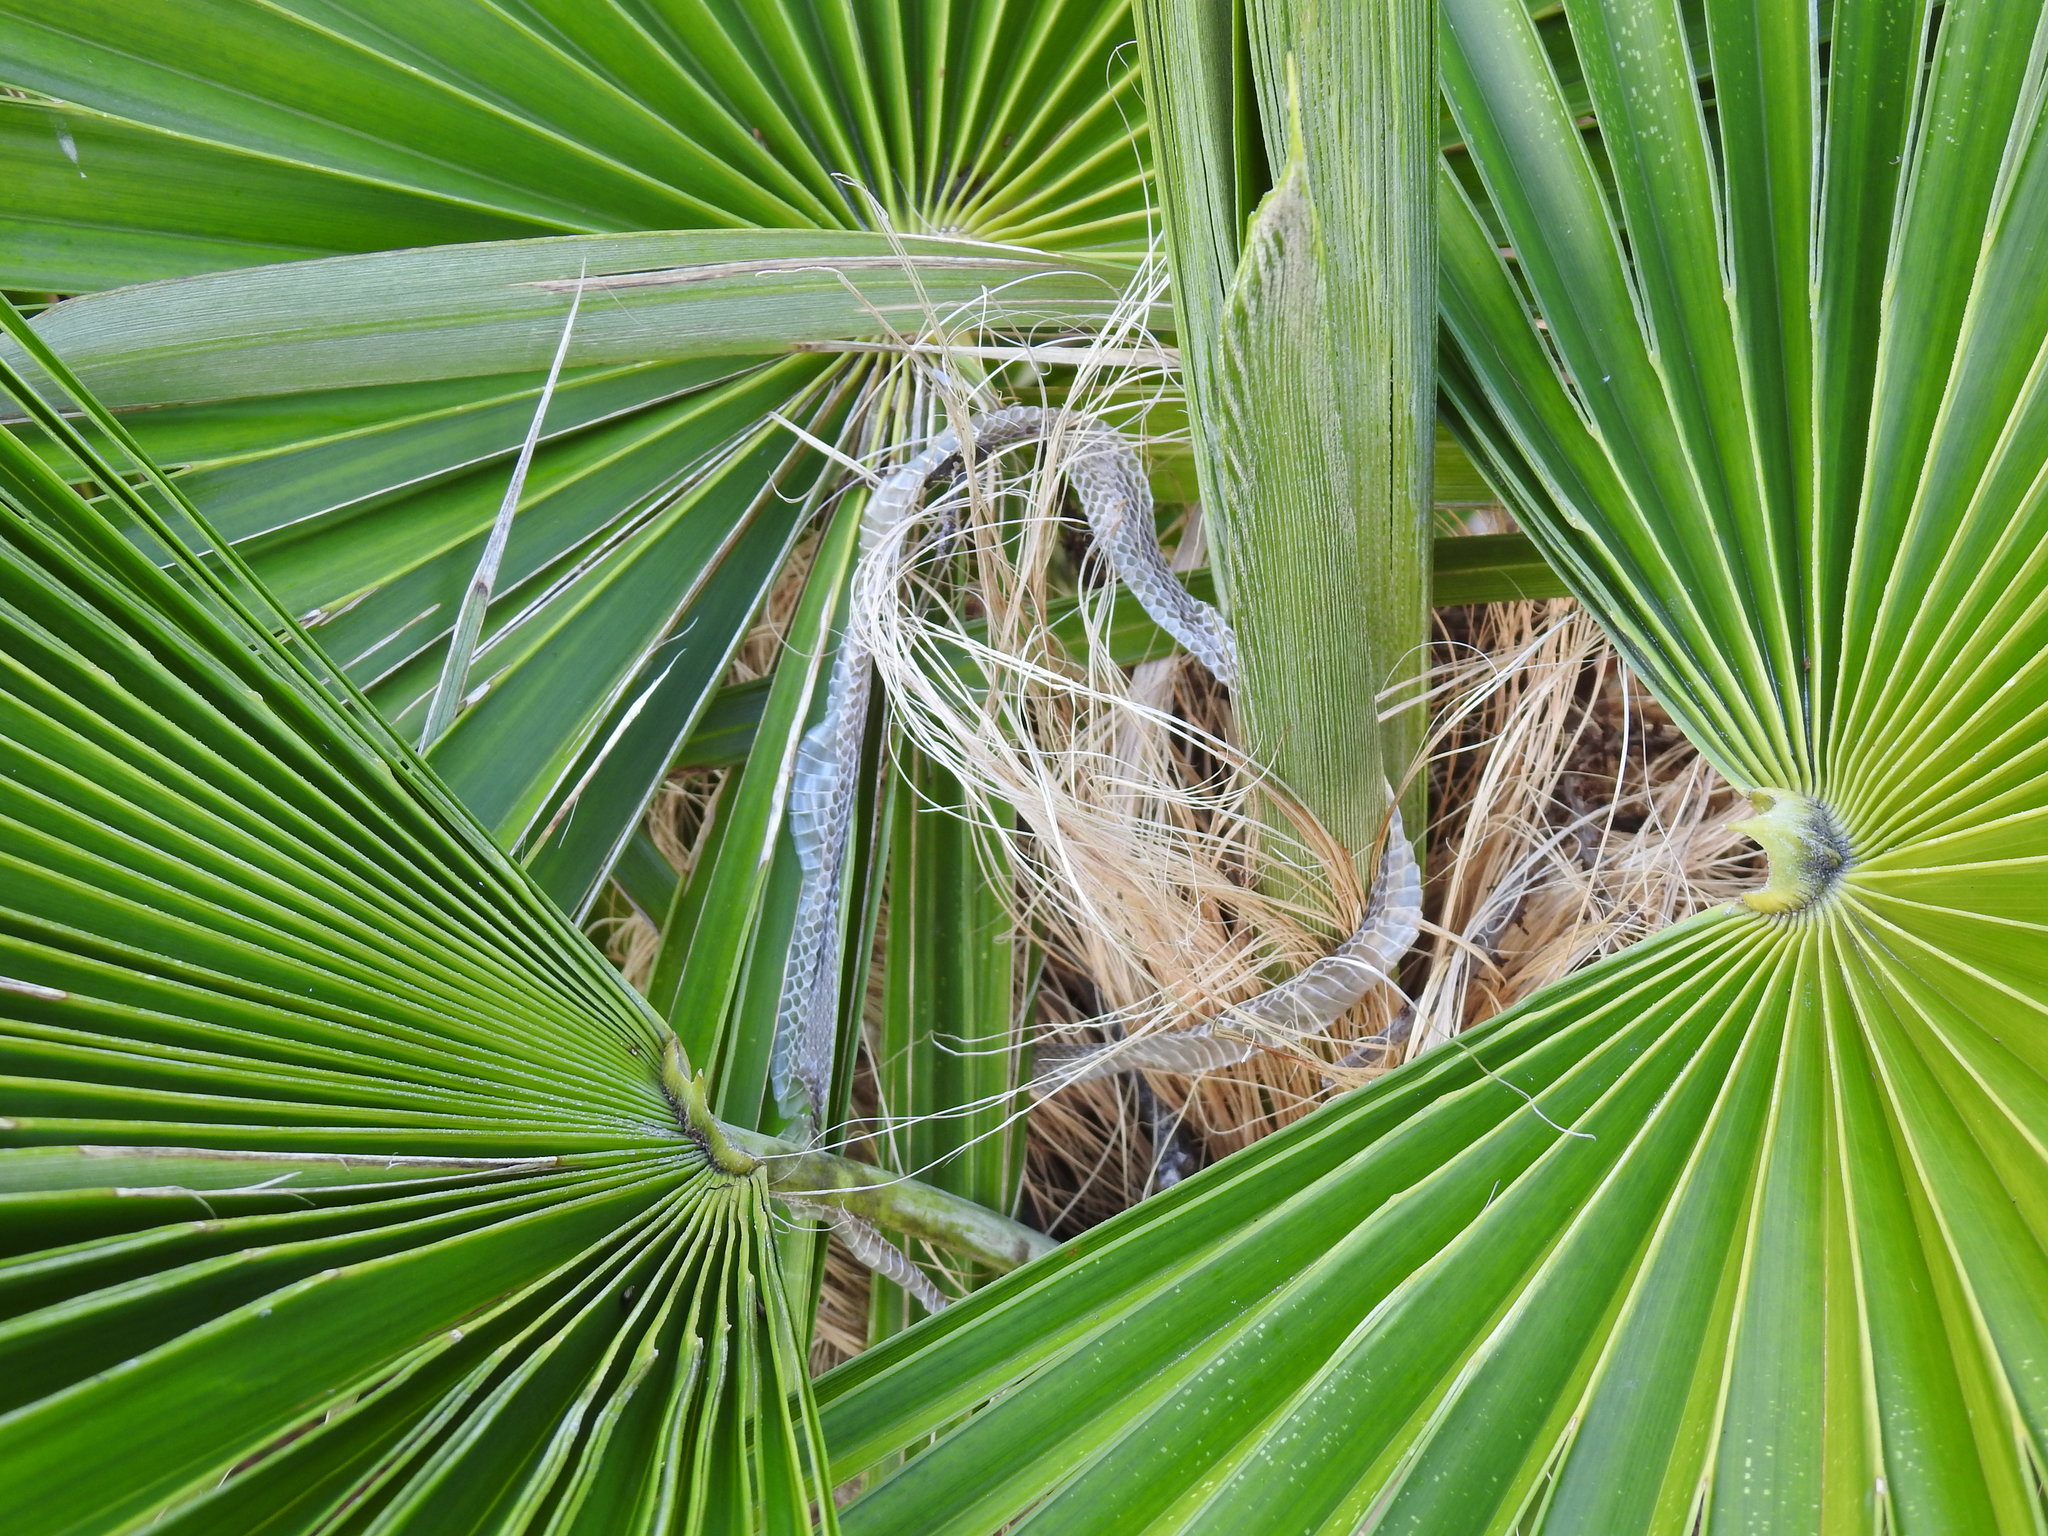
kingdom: Animalia
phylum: Chordata
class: Squamata
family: Colubridae
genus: Coluber
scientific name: Coluber constrictor
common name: Eastern racer
